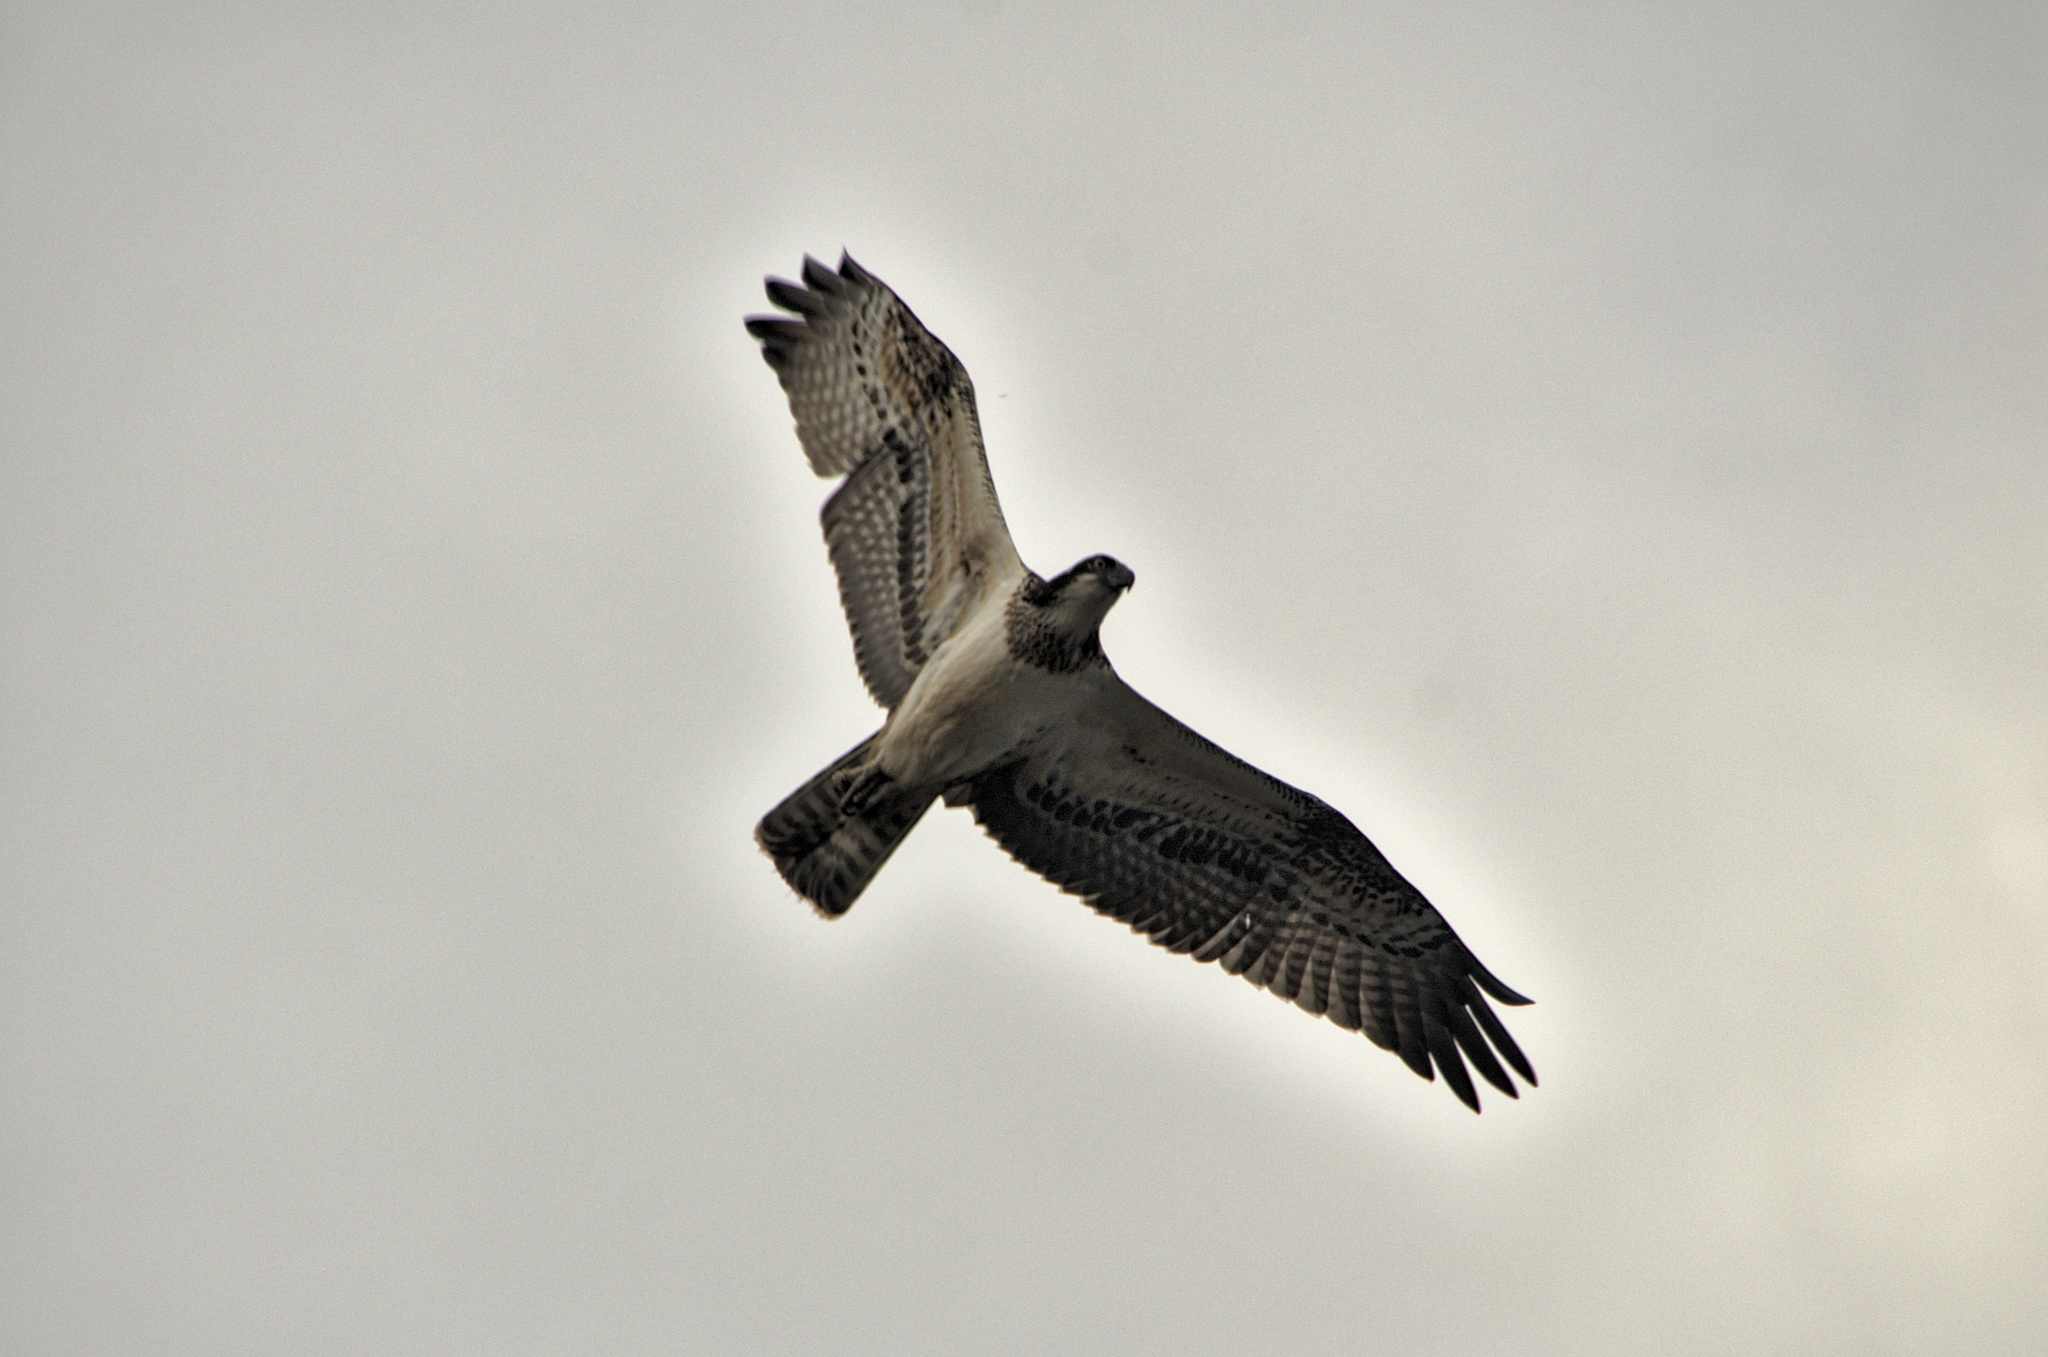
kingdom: Animalia
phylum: Chordata
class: Aves
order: Accipitriformes
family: Pandionidae
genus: Pandion
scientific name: Pandion haliaetus
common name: Osprey
